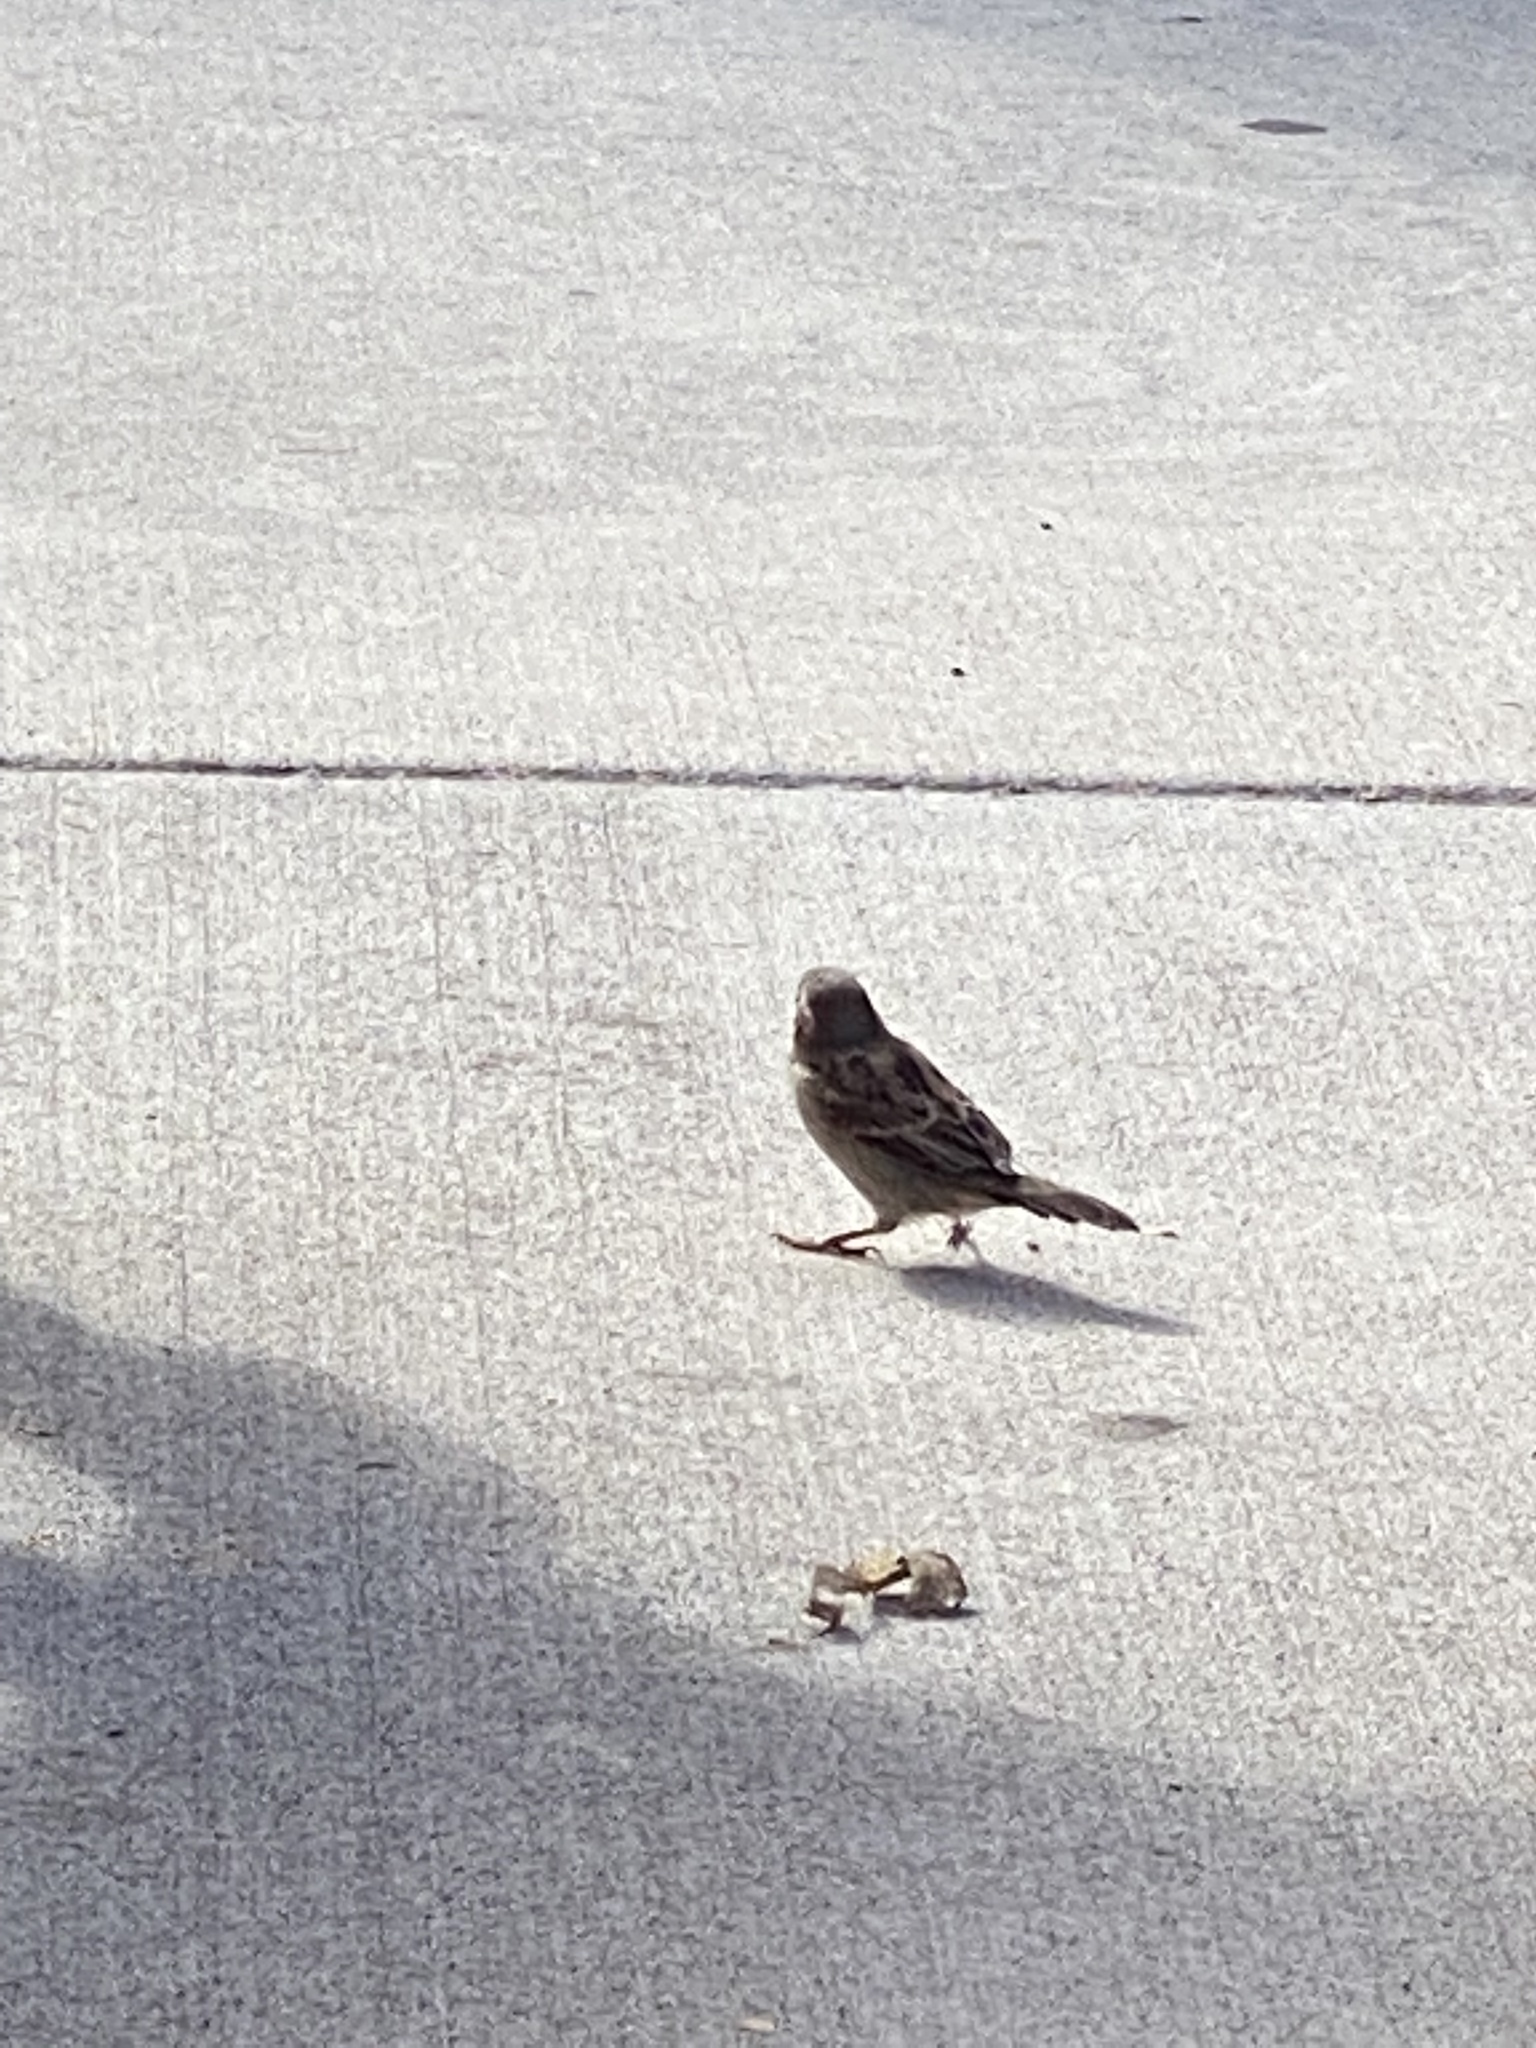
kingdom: Animalia
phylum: Chordata
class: Aves
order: Passeriformes
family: Passeridae
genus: Passer
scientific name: Passer domesticus
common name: House sparrow
